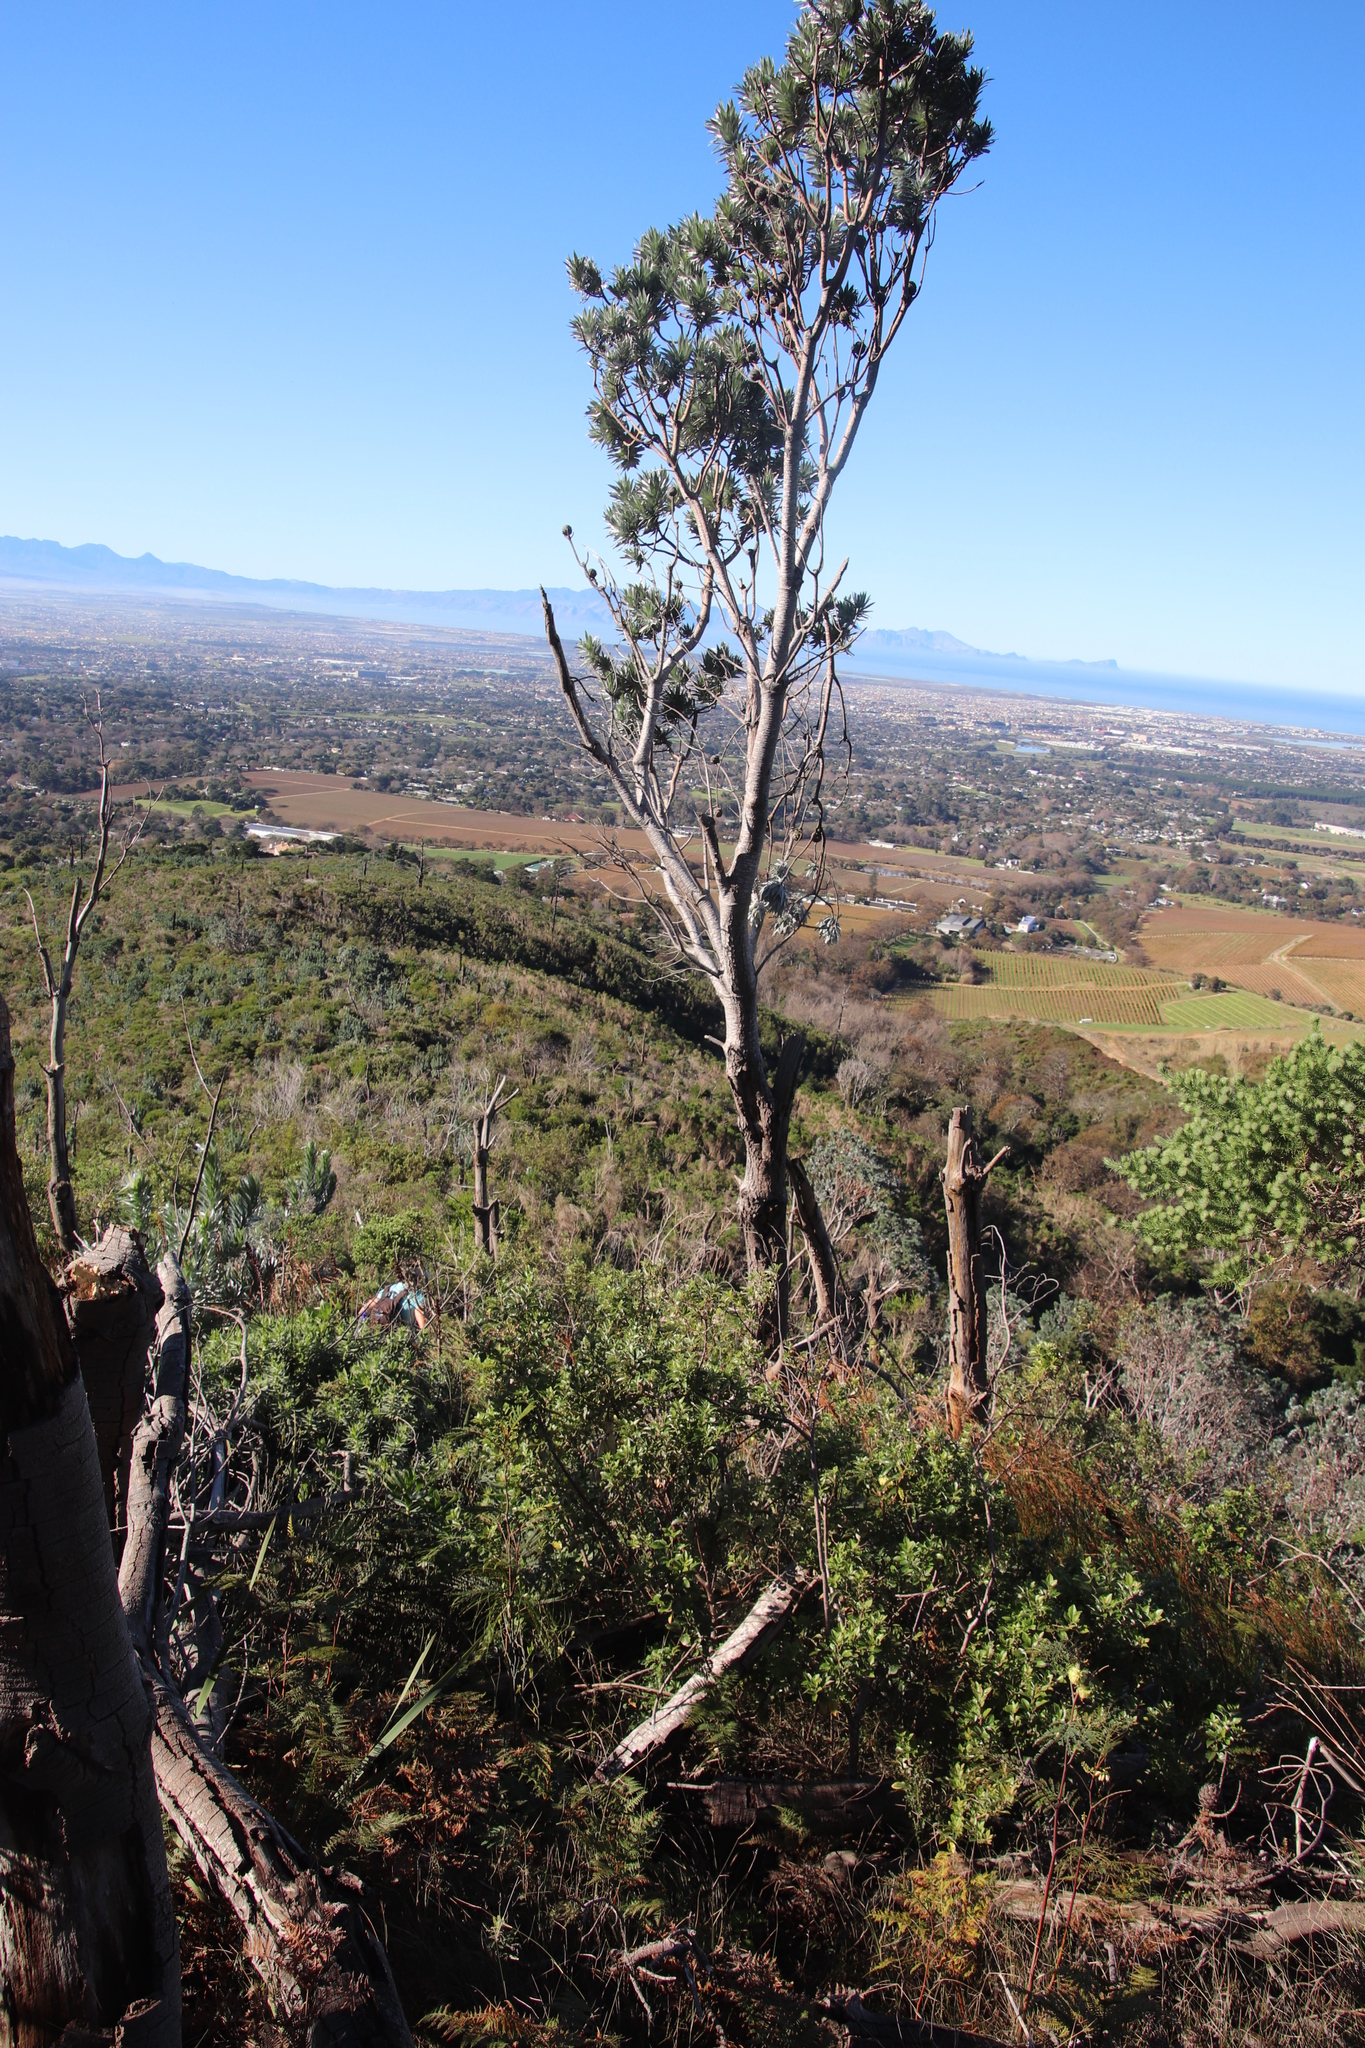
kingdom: Plantae
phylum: Tracheophyta
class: Magnoliopsida
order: Proteales
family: Proteaceae
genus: Leucadendron
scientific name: Leucadendron argenteum
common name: Cape silver tree
